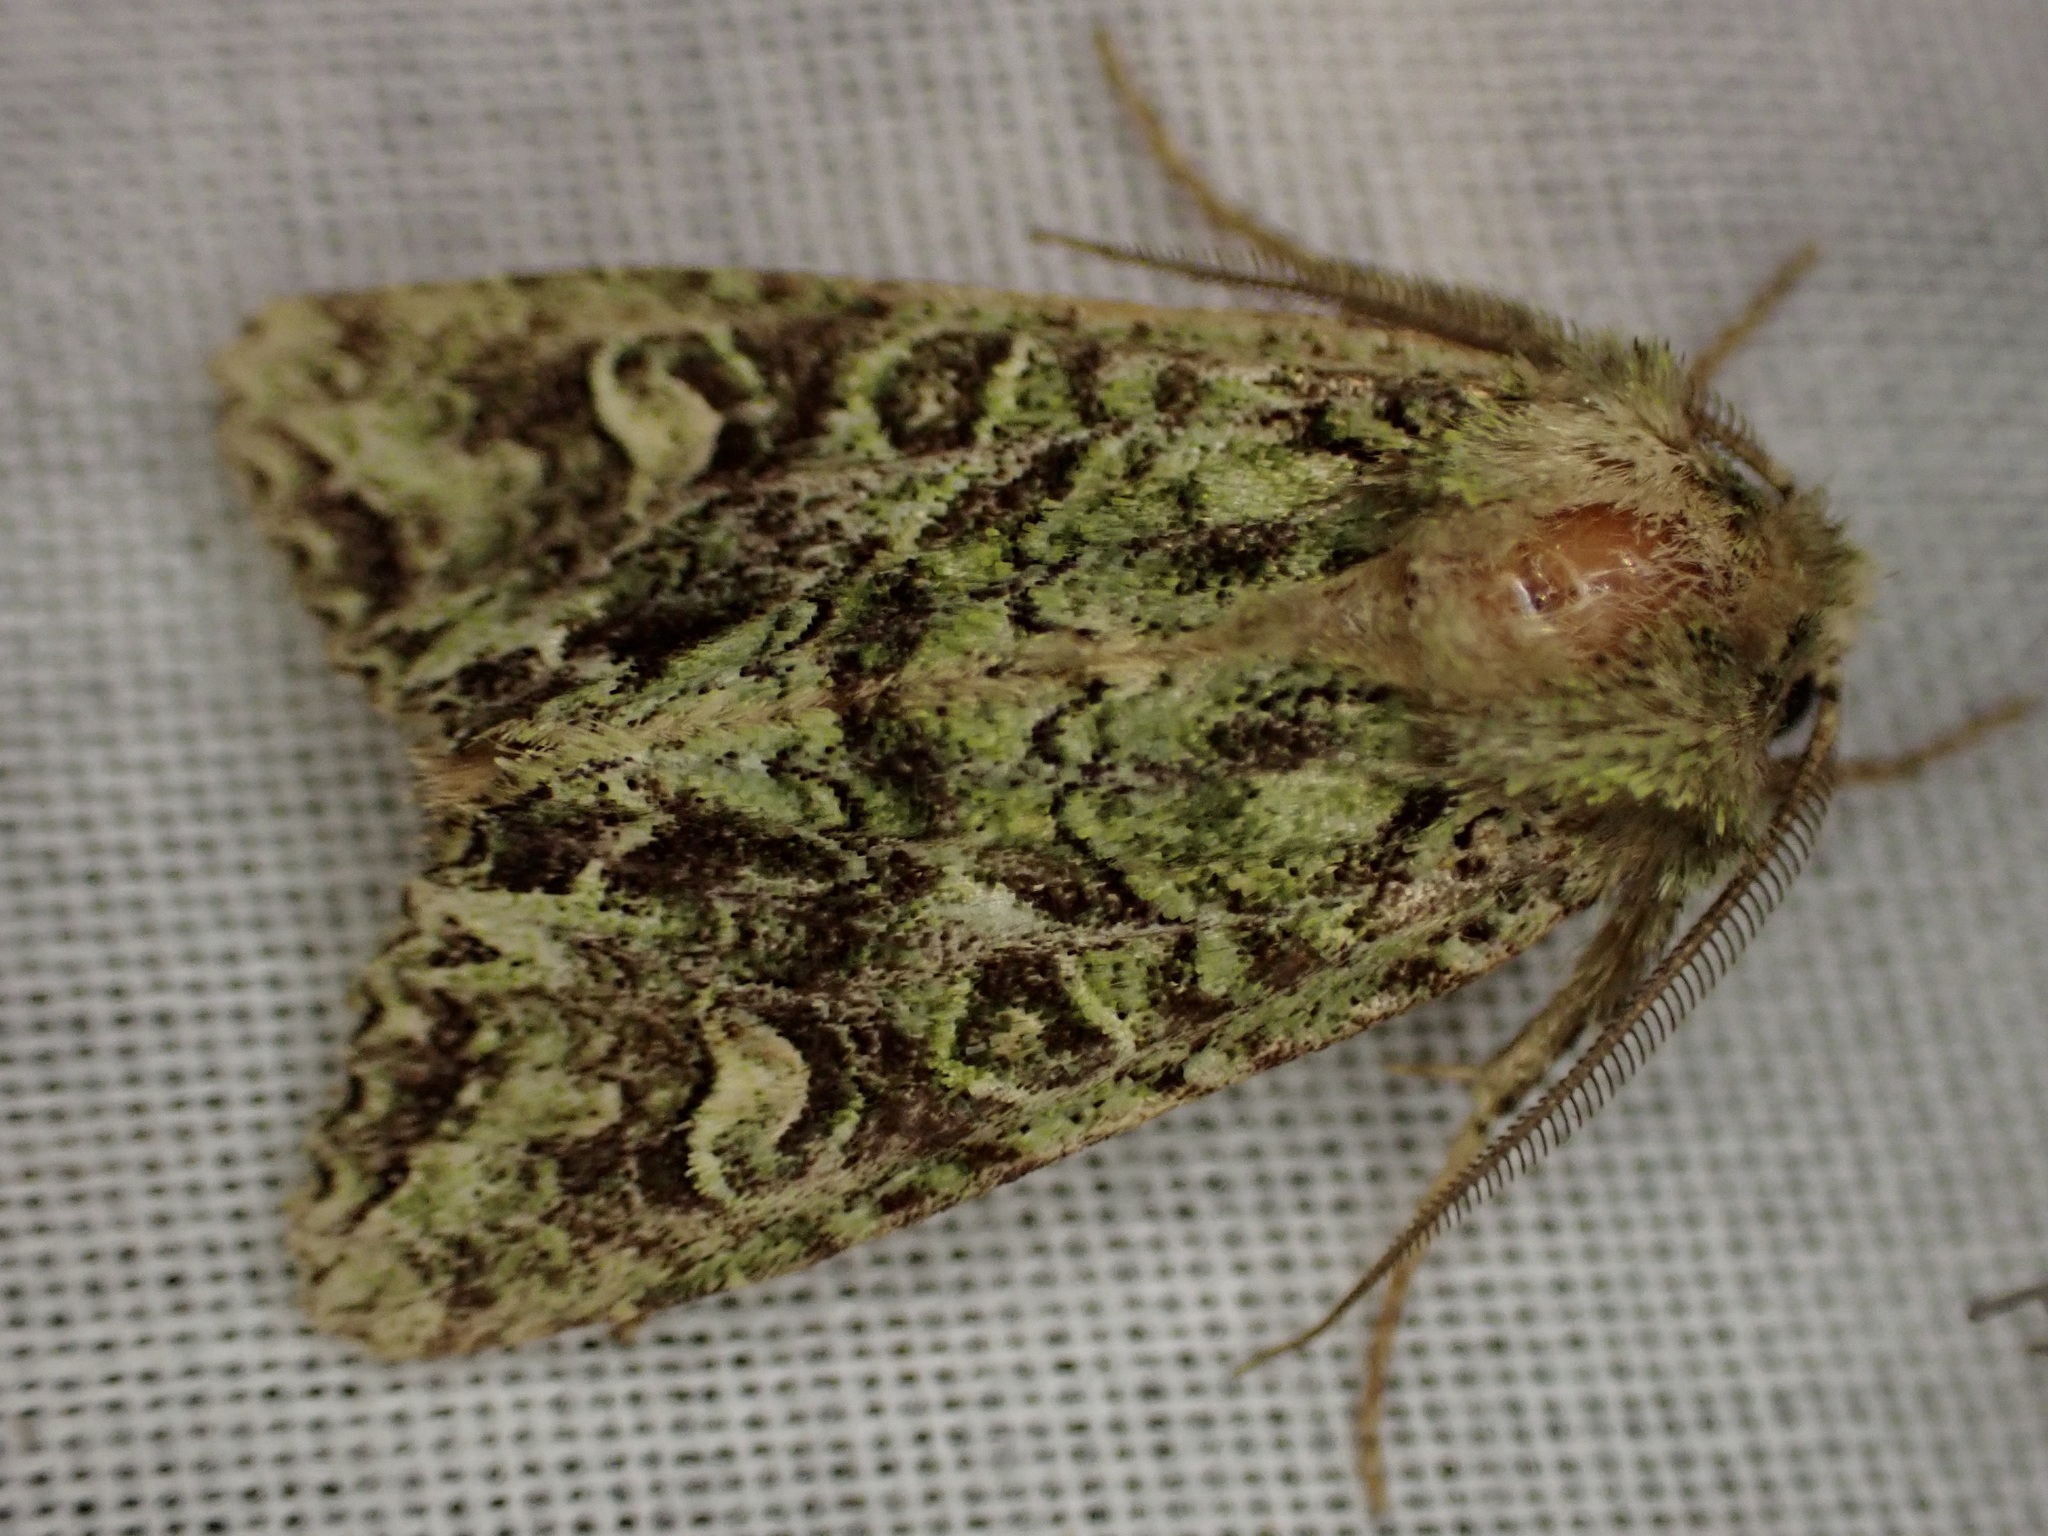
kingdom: Animalia
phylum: Arthropoda
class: Insecta
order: Lepidoptera
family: Noctuidae
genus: Ichneutica
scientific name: Ichneutica
